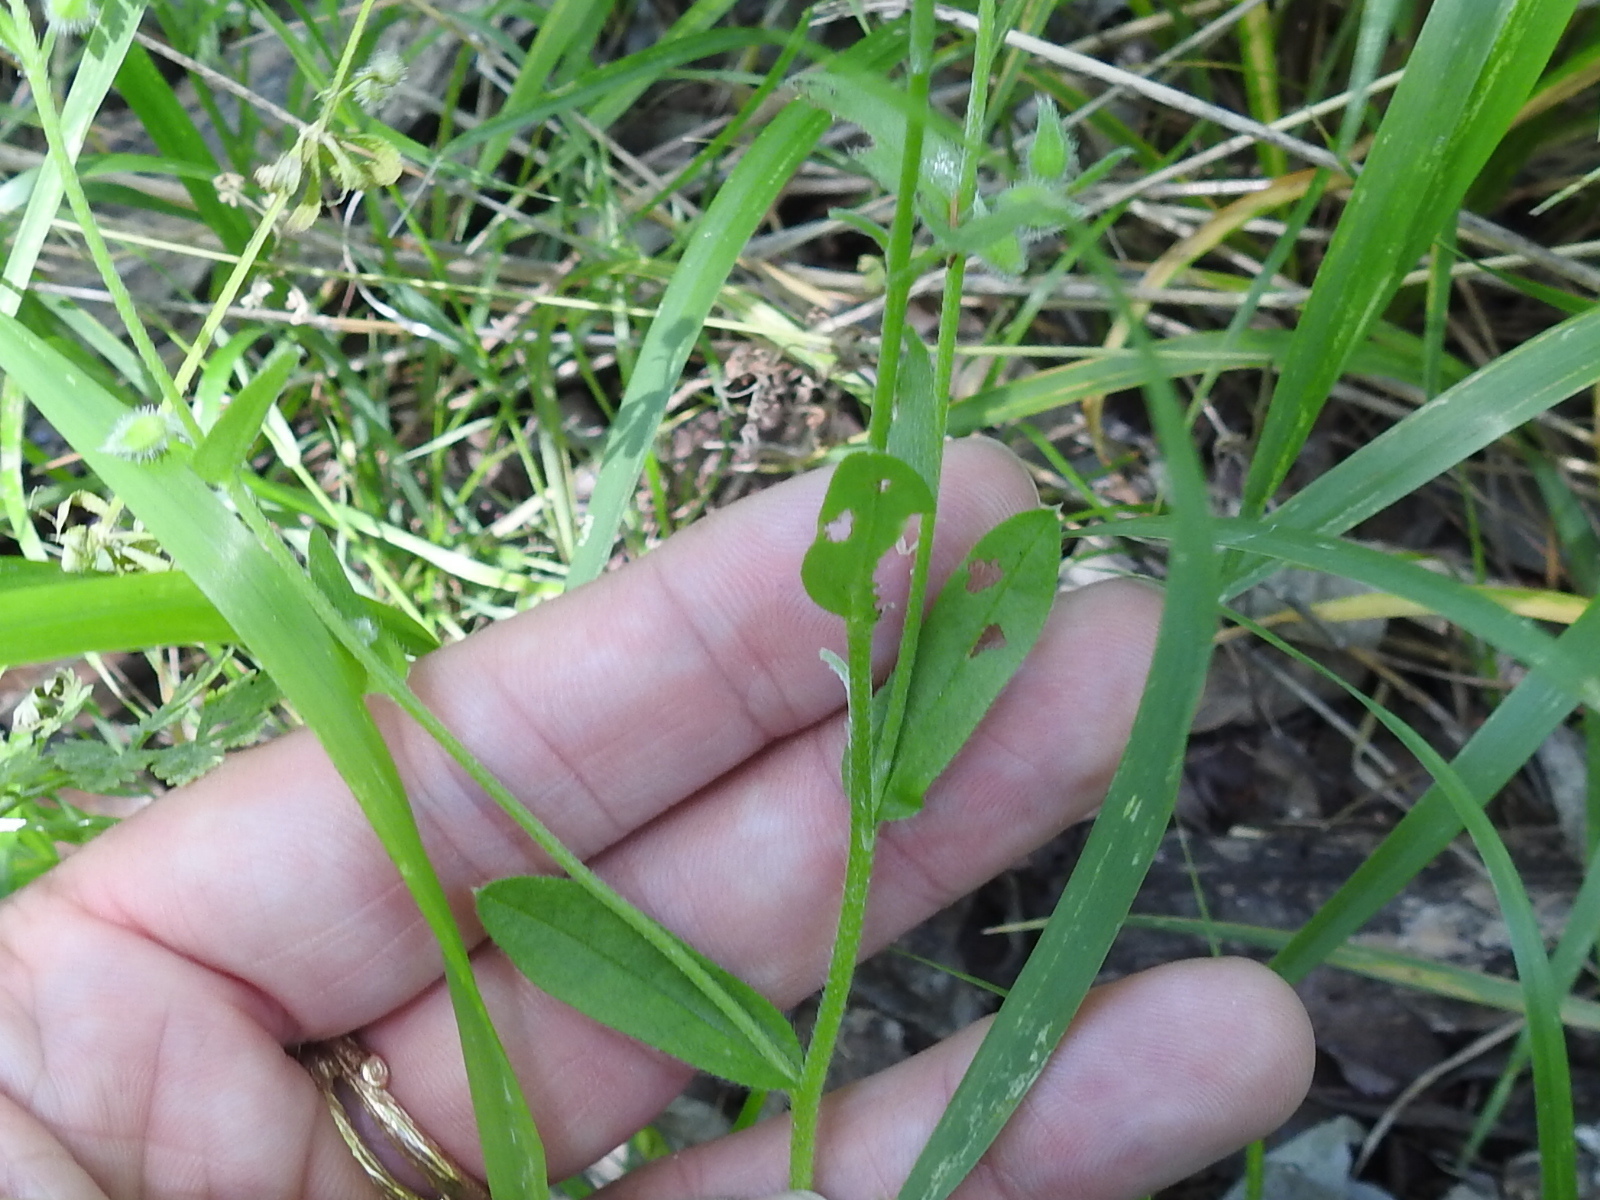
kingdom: Plantae
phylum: Tracheophyta
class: Magnoliopsida
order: Boraginales
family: Boraginaceae
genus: Myosotis
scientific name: Myosotis macrosperma
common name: Large-seed forget-me-not
